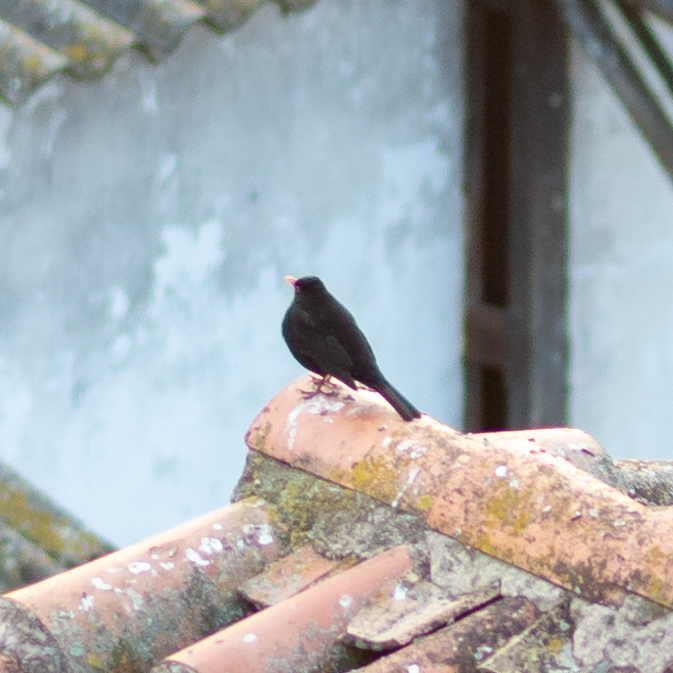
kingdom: Animalia
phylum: Chordata
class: Aves
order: Passeriformes
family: Turdidae
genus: Turdus
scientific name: Turdus merula
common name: Common blackbird
